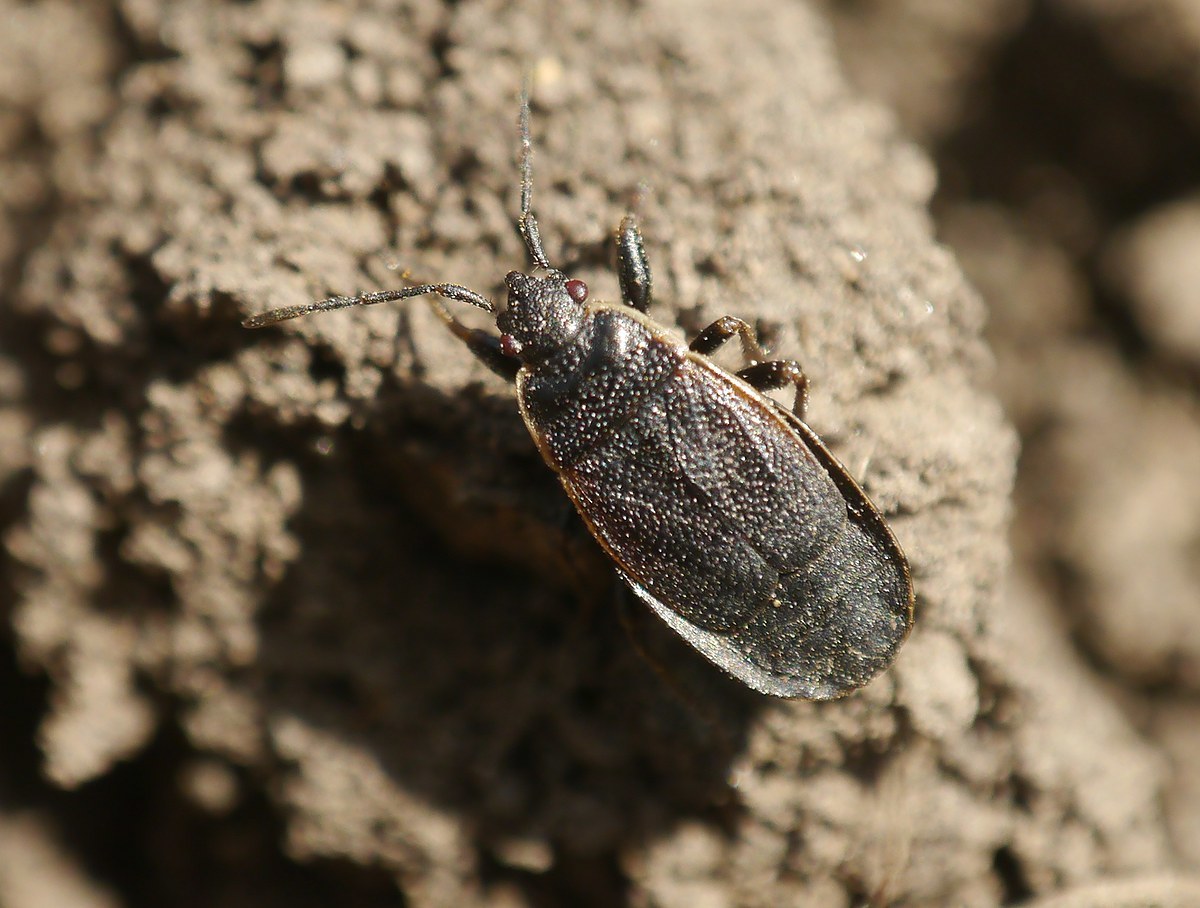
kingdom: Animalia
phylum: Arthropoda
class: Insecta
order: Hemiptera
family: Pyrrhocoridae
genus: Pyrrhocoris
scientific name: Pyrrhocoris marginatus
